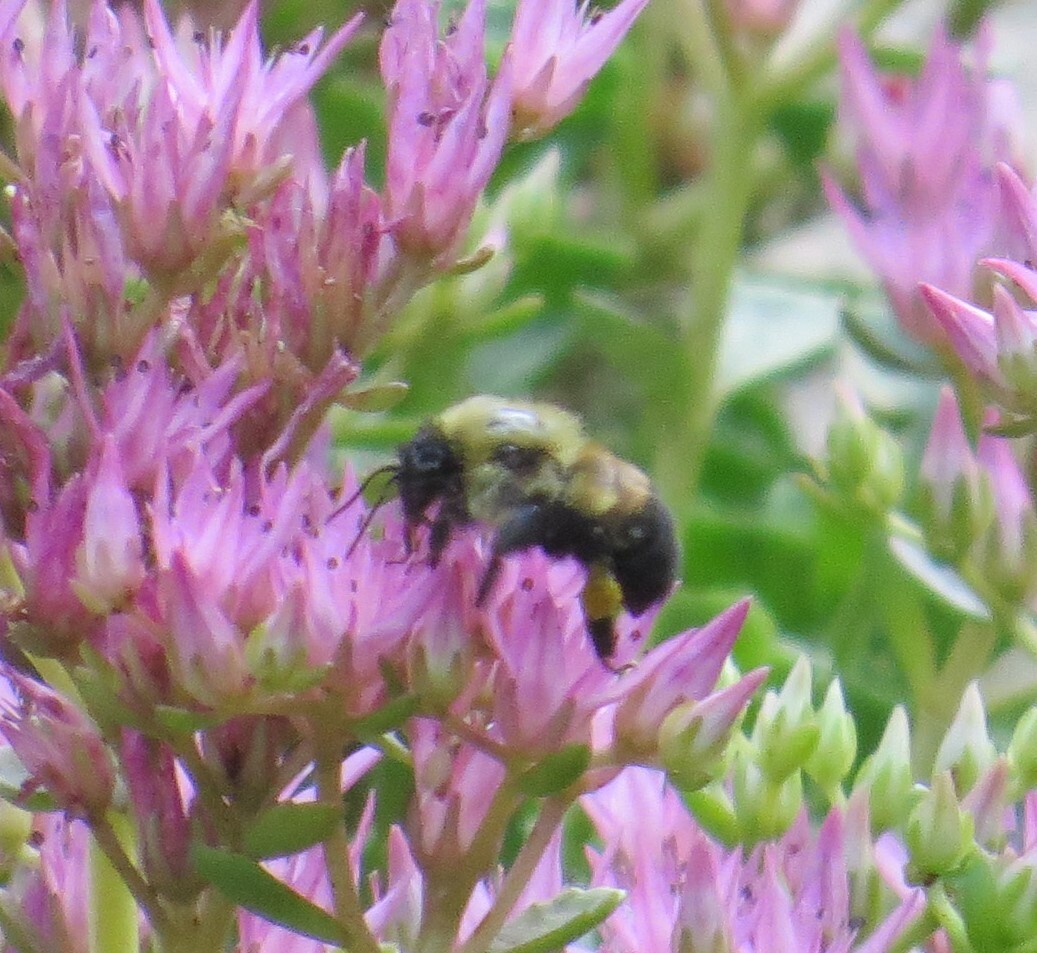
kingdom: Animalia
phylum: Arthropoda
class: Insecta
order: Hymenoptera
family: Apidae
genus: Bombus
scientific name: Bombus griseocollis
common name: Brown-belted bumble bee
